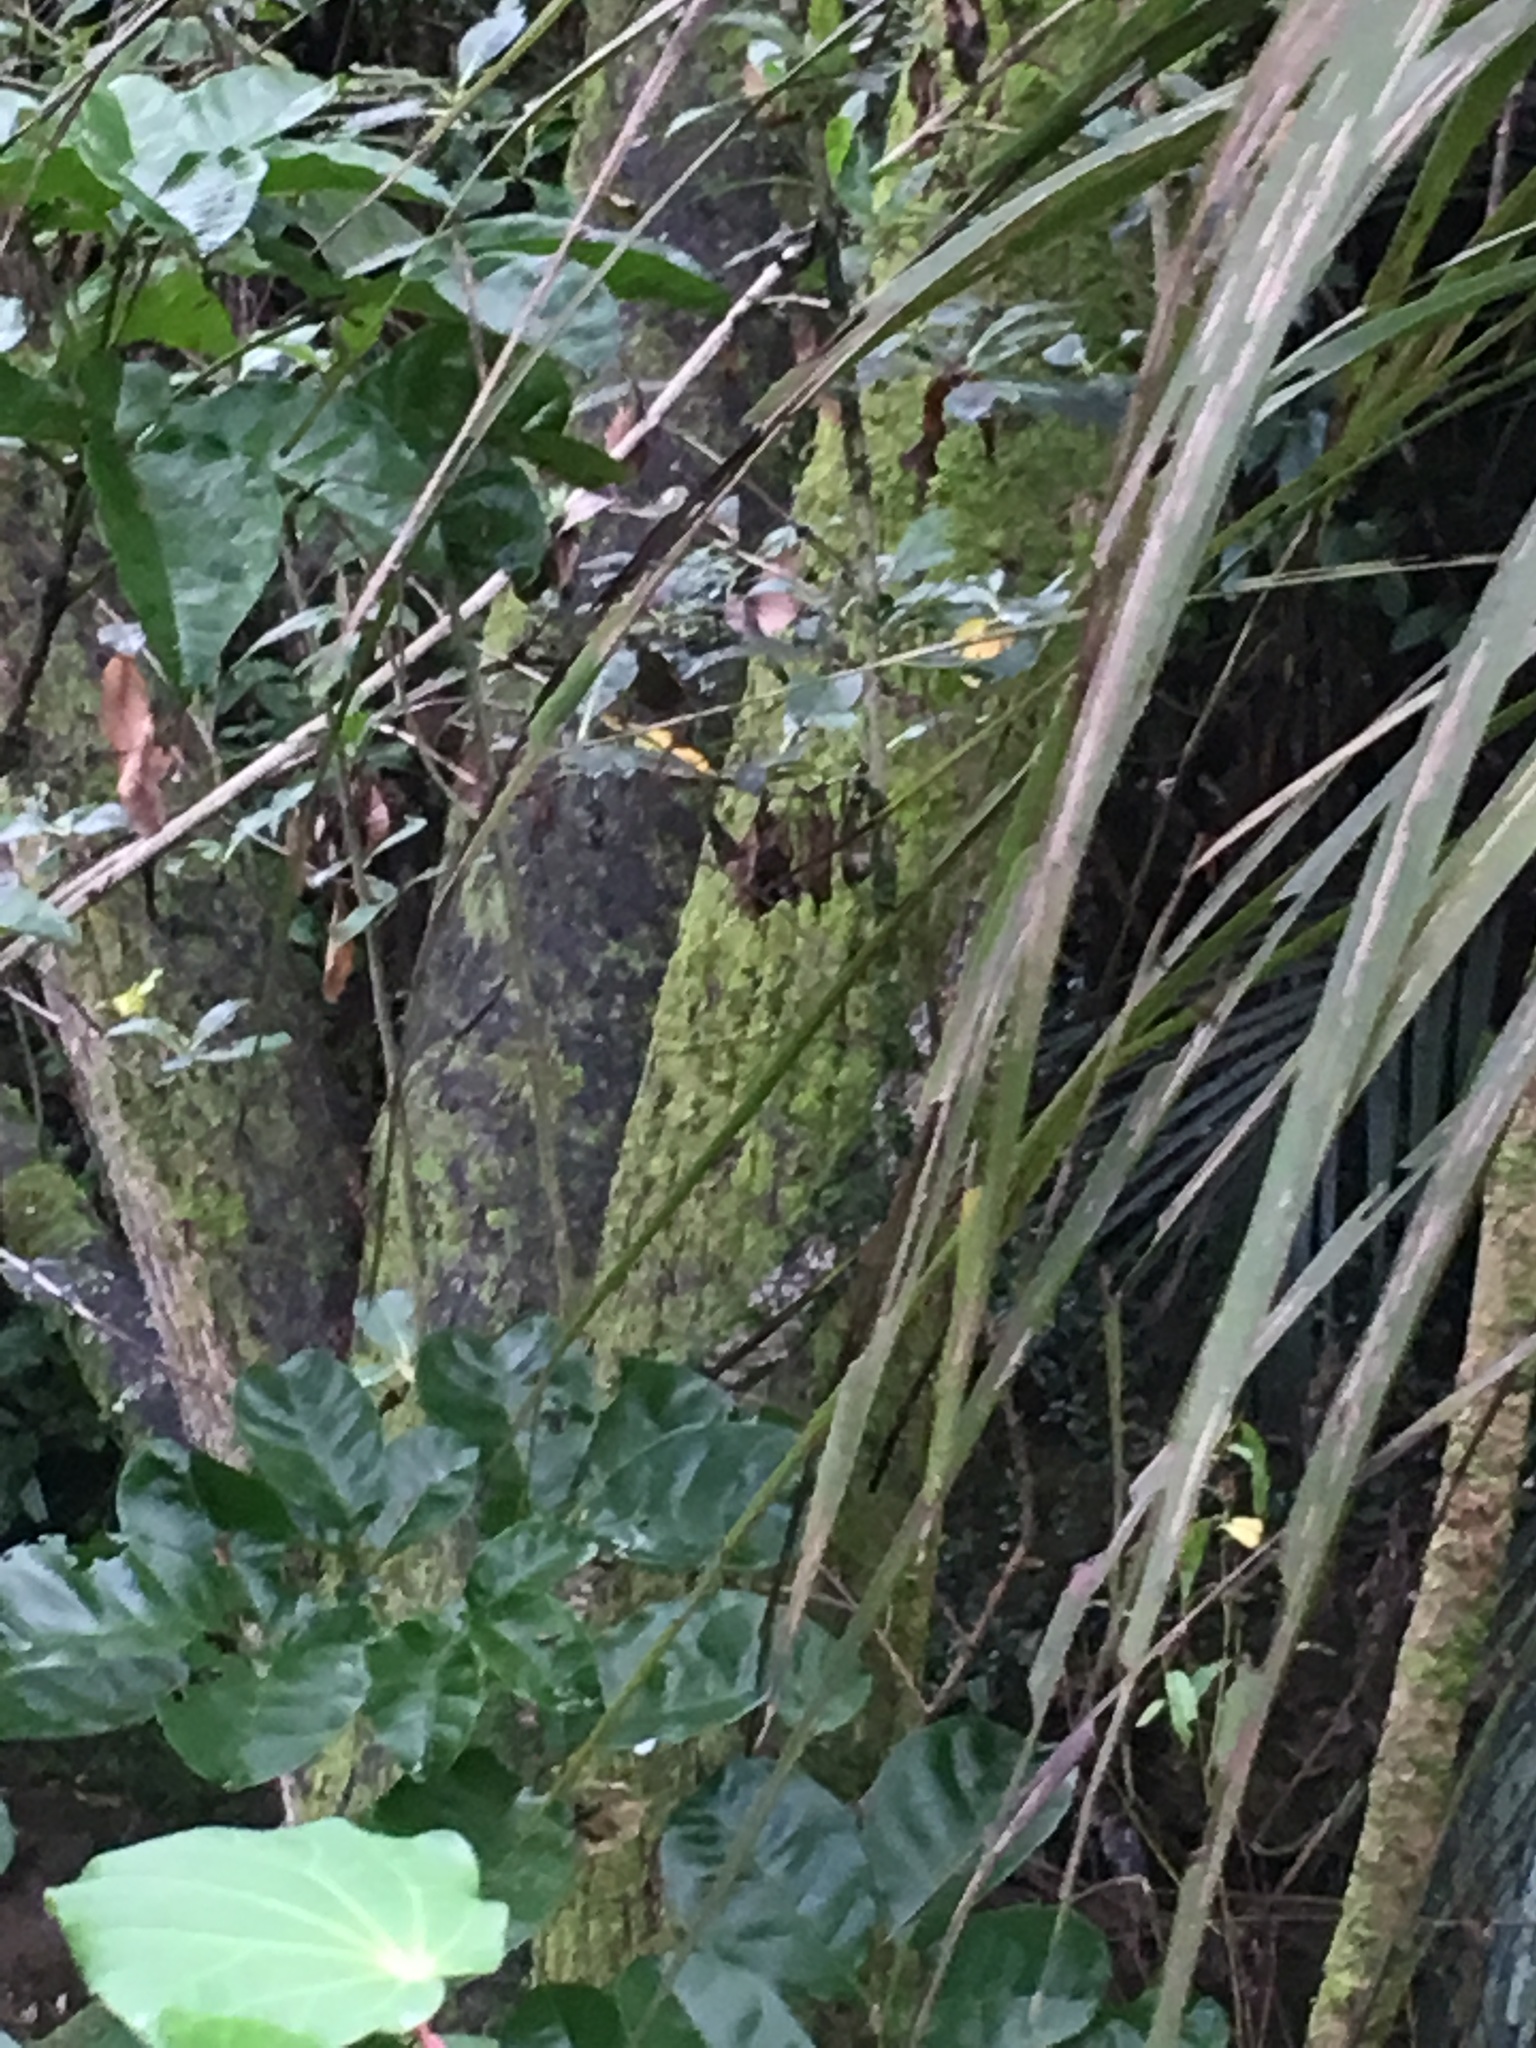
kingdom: Plantae
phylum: Tracheophyta
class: Magnoliopsida
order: Piperales
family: Piperaceae
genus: Macropiper
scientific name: Macropiper excelsum
